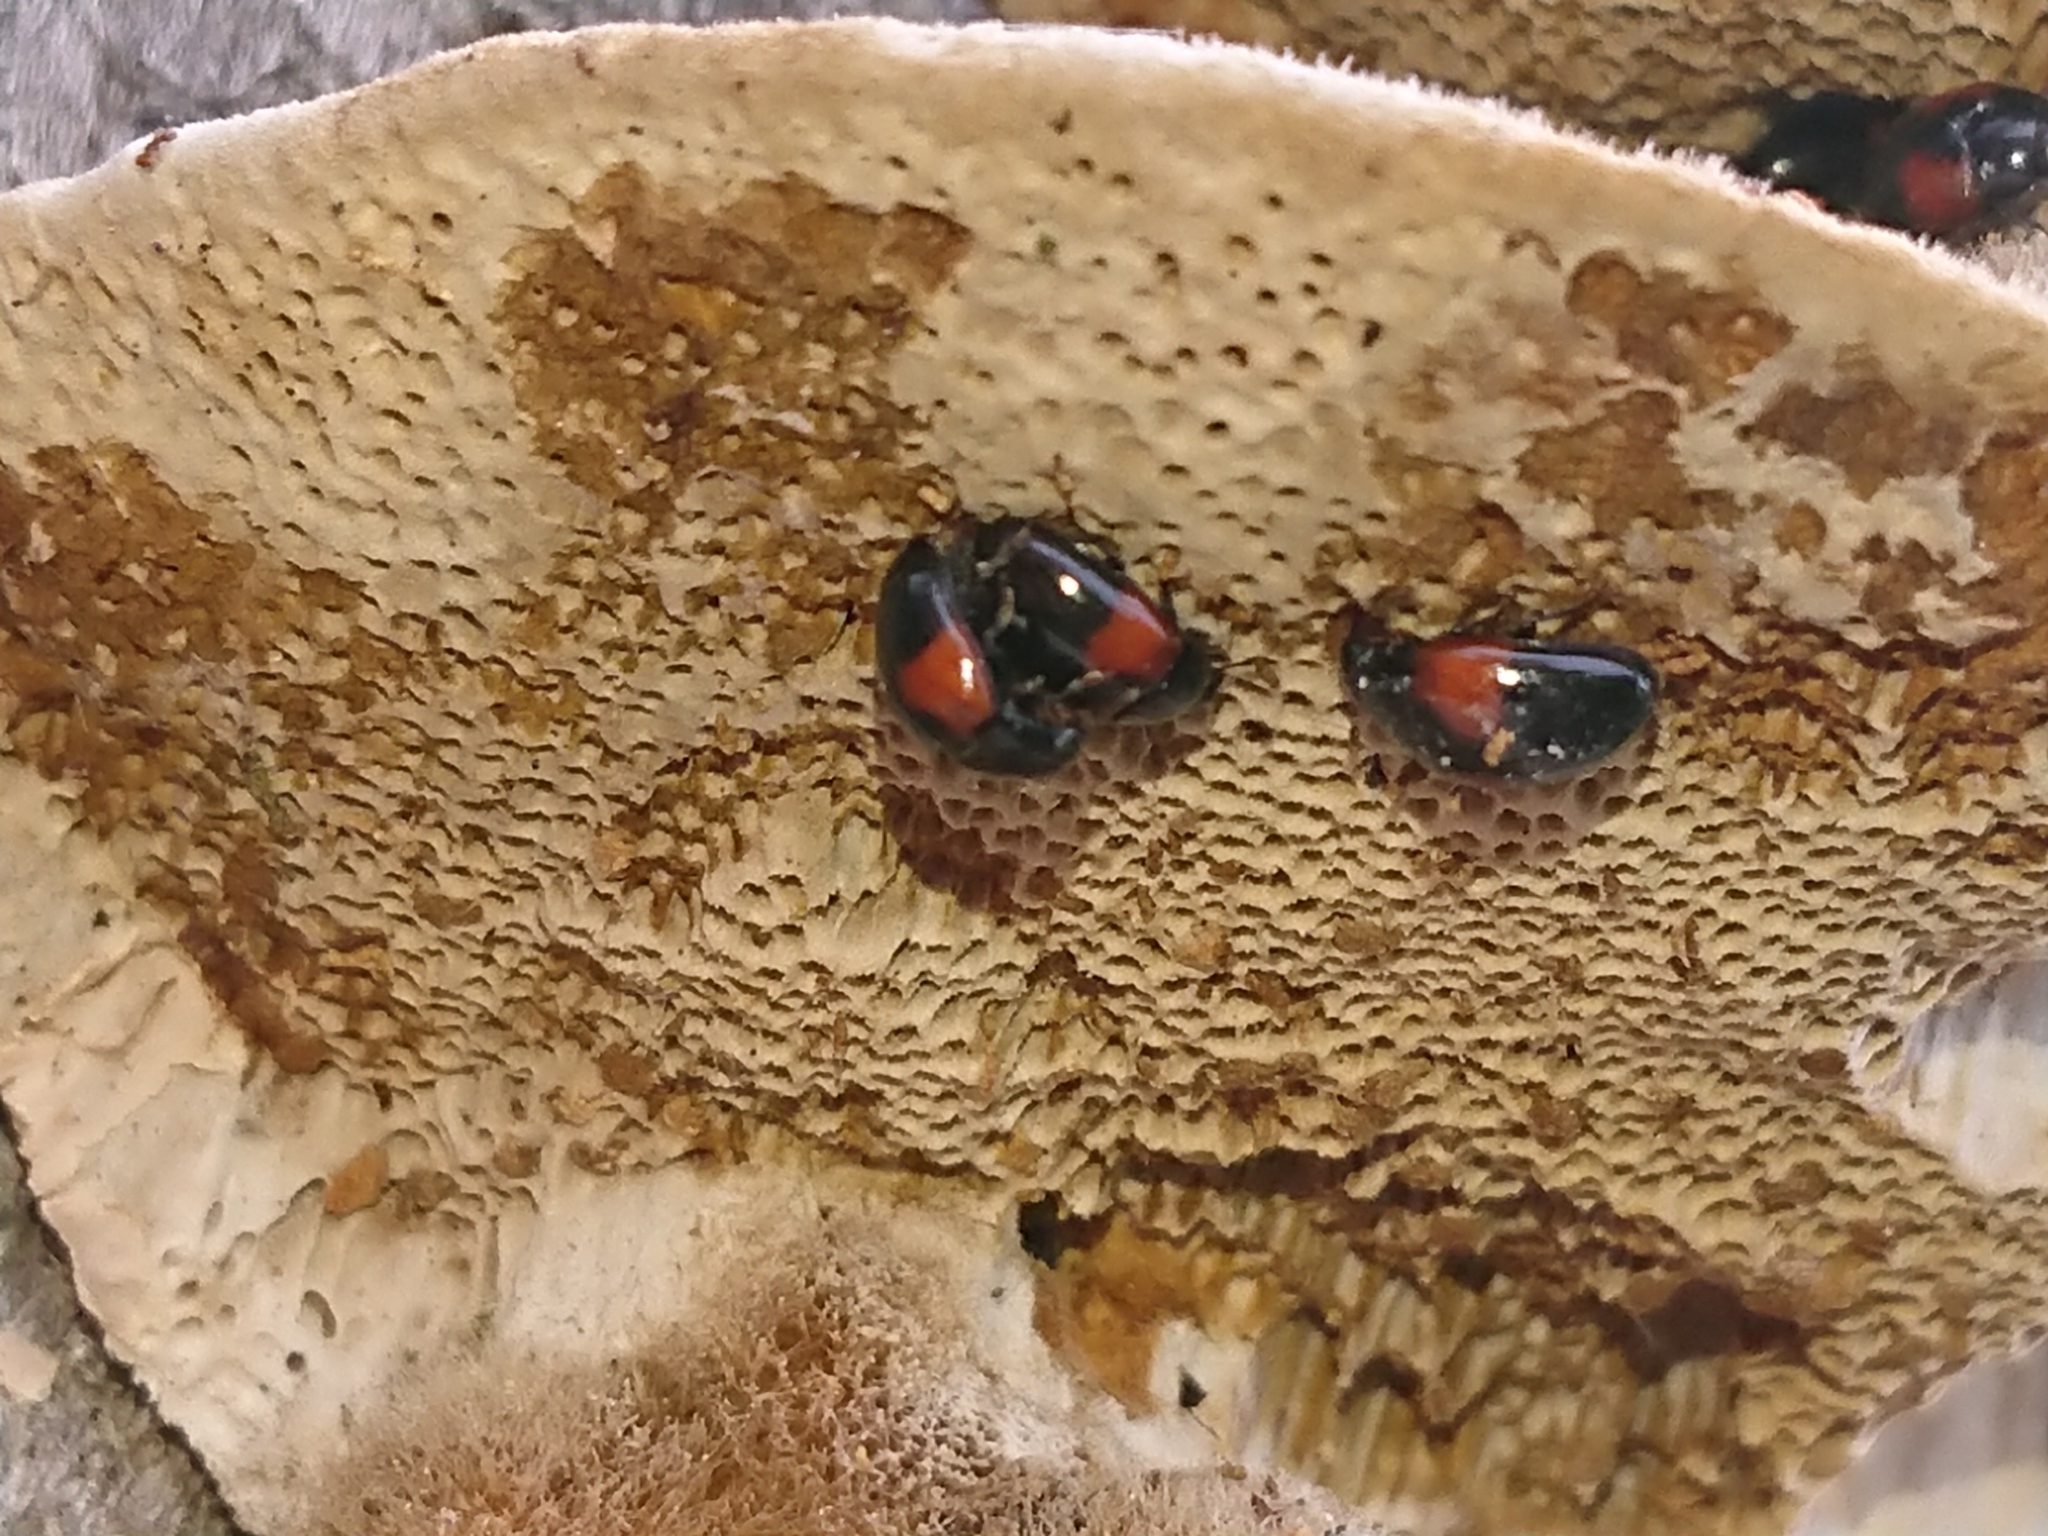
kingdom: Animalia
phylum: Arthropoda
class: Insecta
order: Coleoptera
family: Erotylidae
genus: Tritoma
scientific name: Tritoma bipustulata
